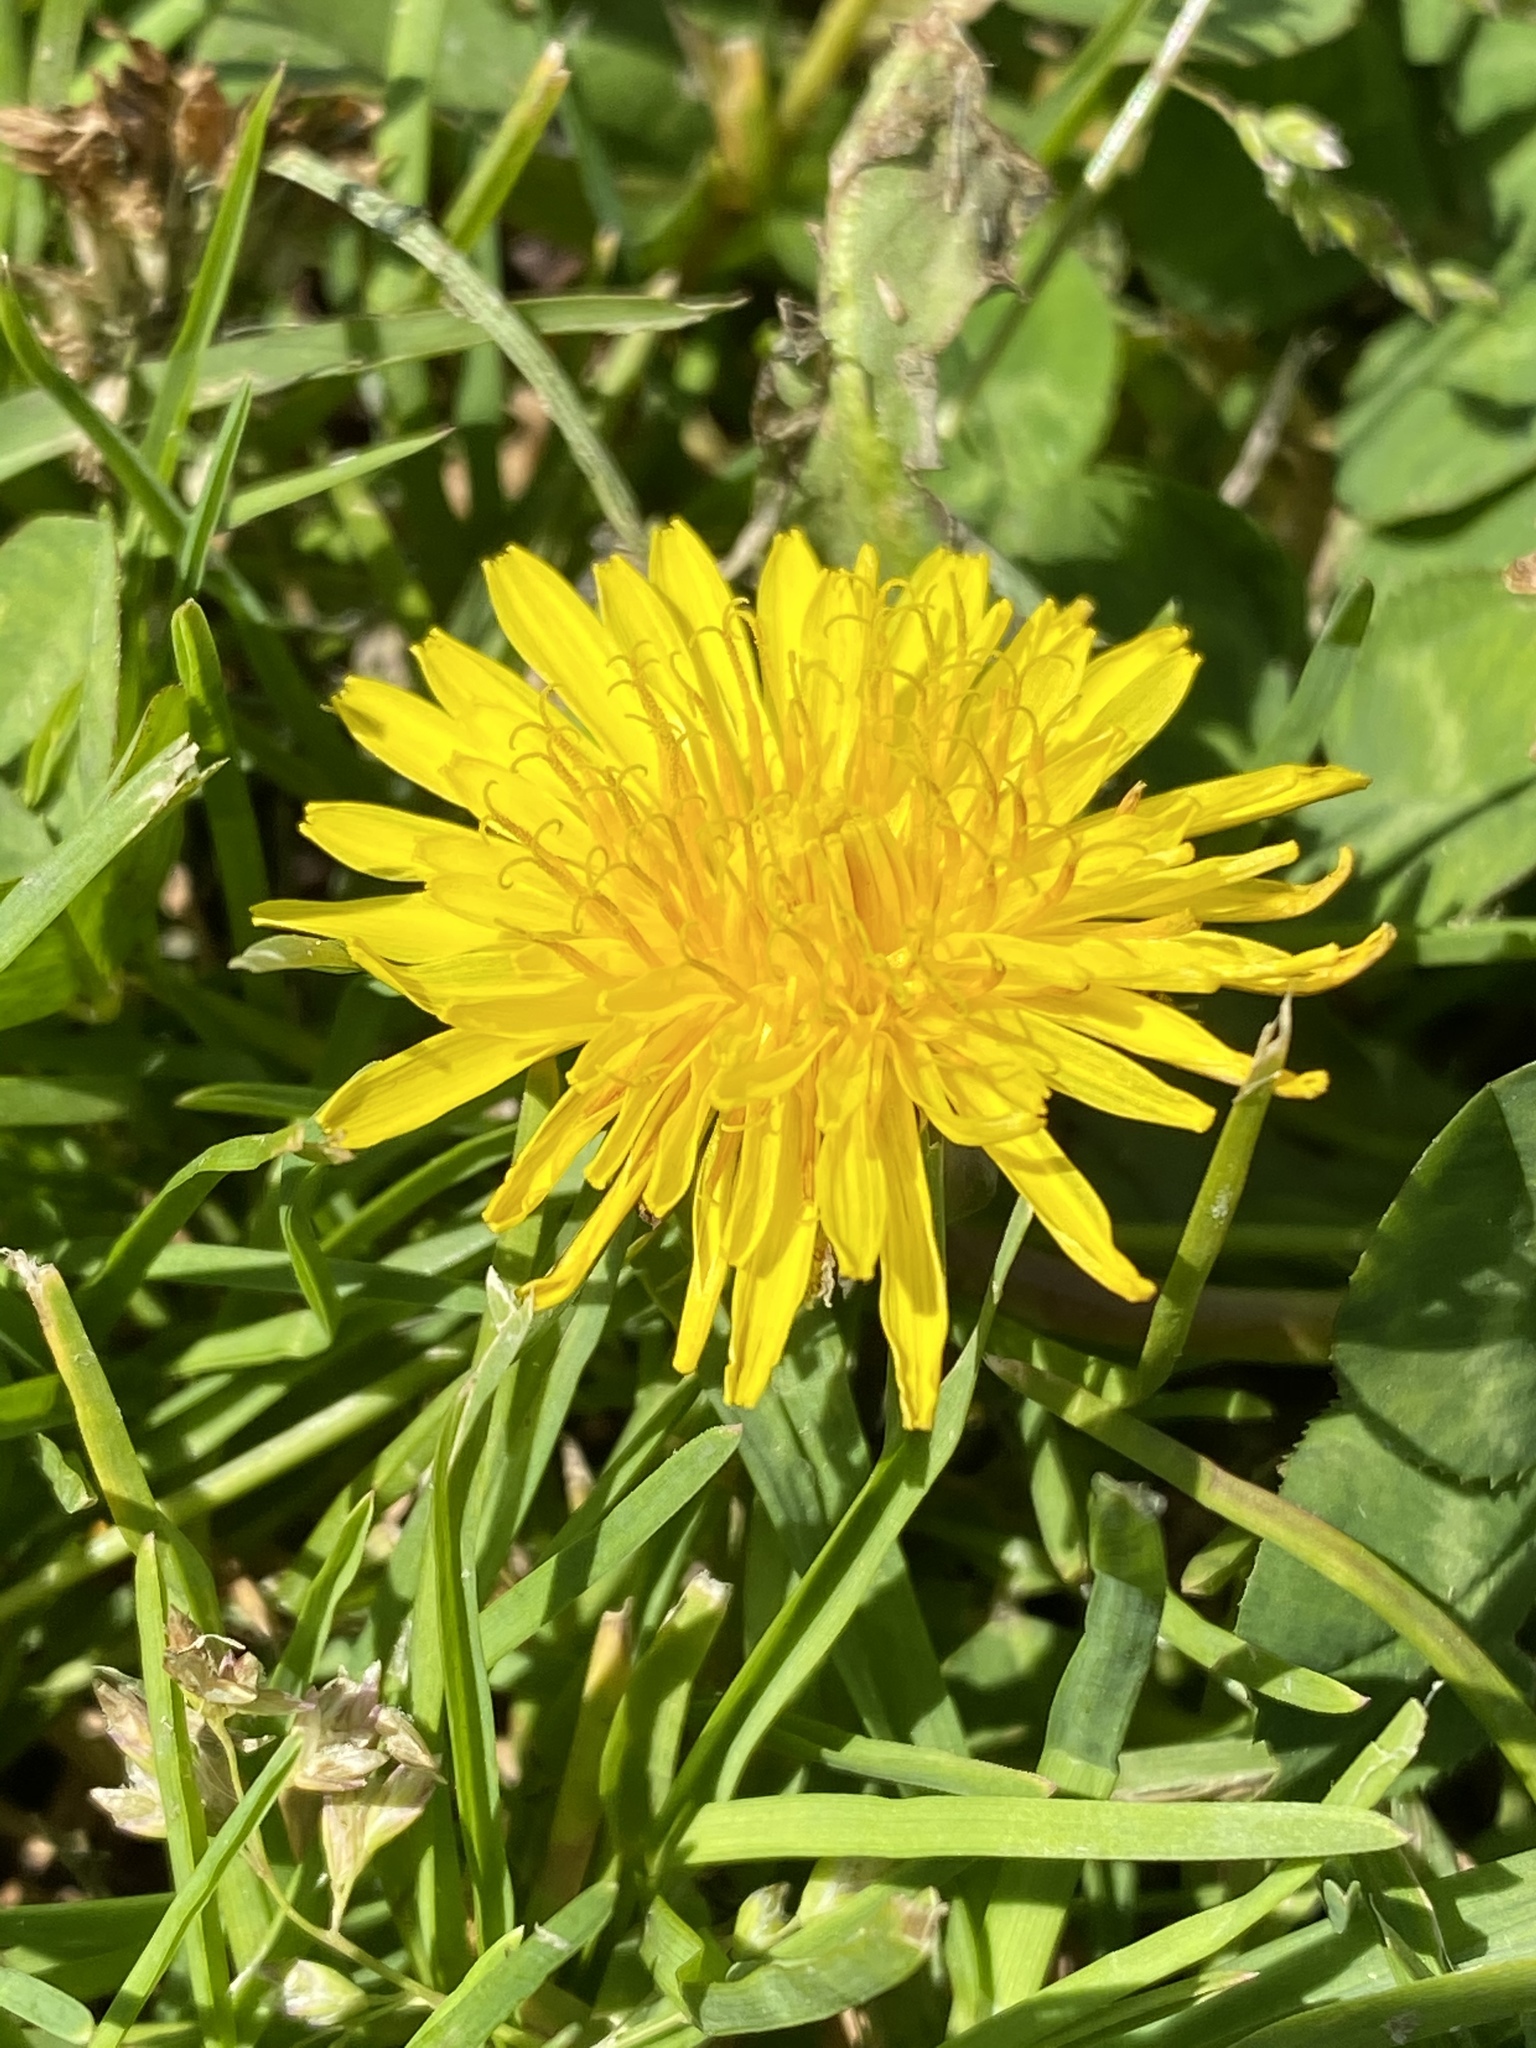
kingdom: Plantae
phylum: Tracheophyta
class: Magnoliopsida
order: Asterales
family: Asteraceae
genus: Taraxacum
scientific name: Taraxacum officinale
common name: Common dandelion
